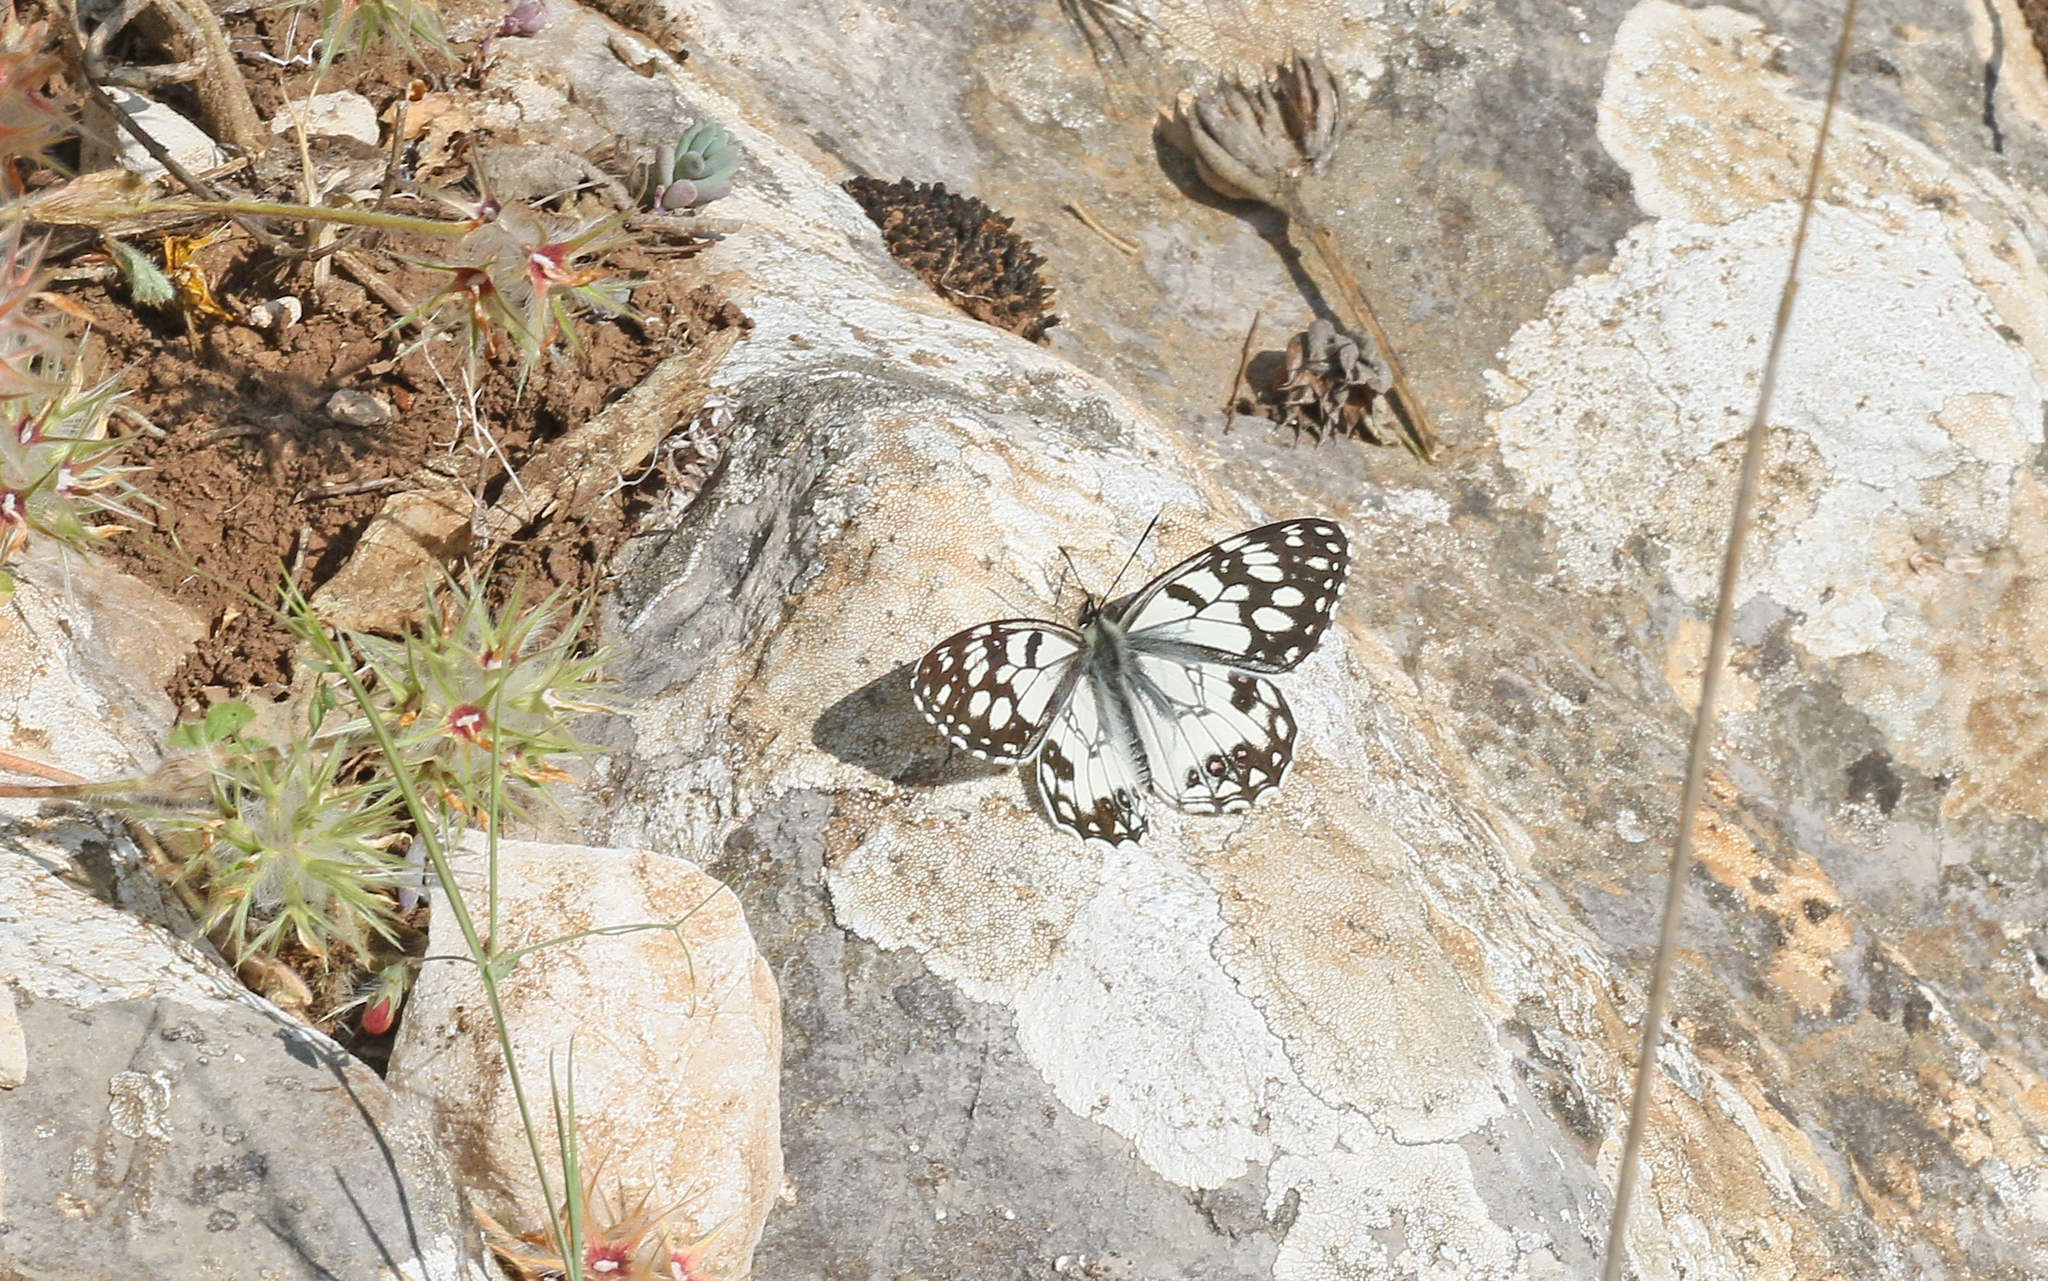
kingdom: Animalia
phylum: Arthropoda
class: Insecta
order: Lepidoptera
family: Nymphalidae
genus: Melanargia
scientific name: Melanargia ines
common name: Spanish marbled white
